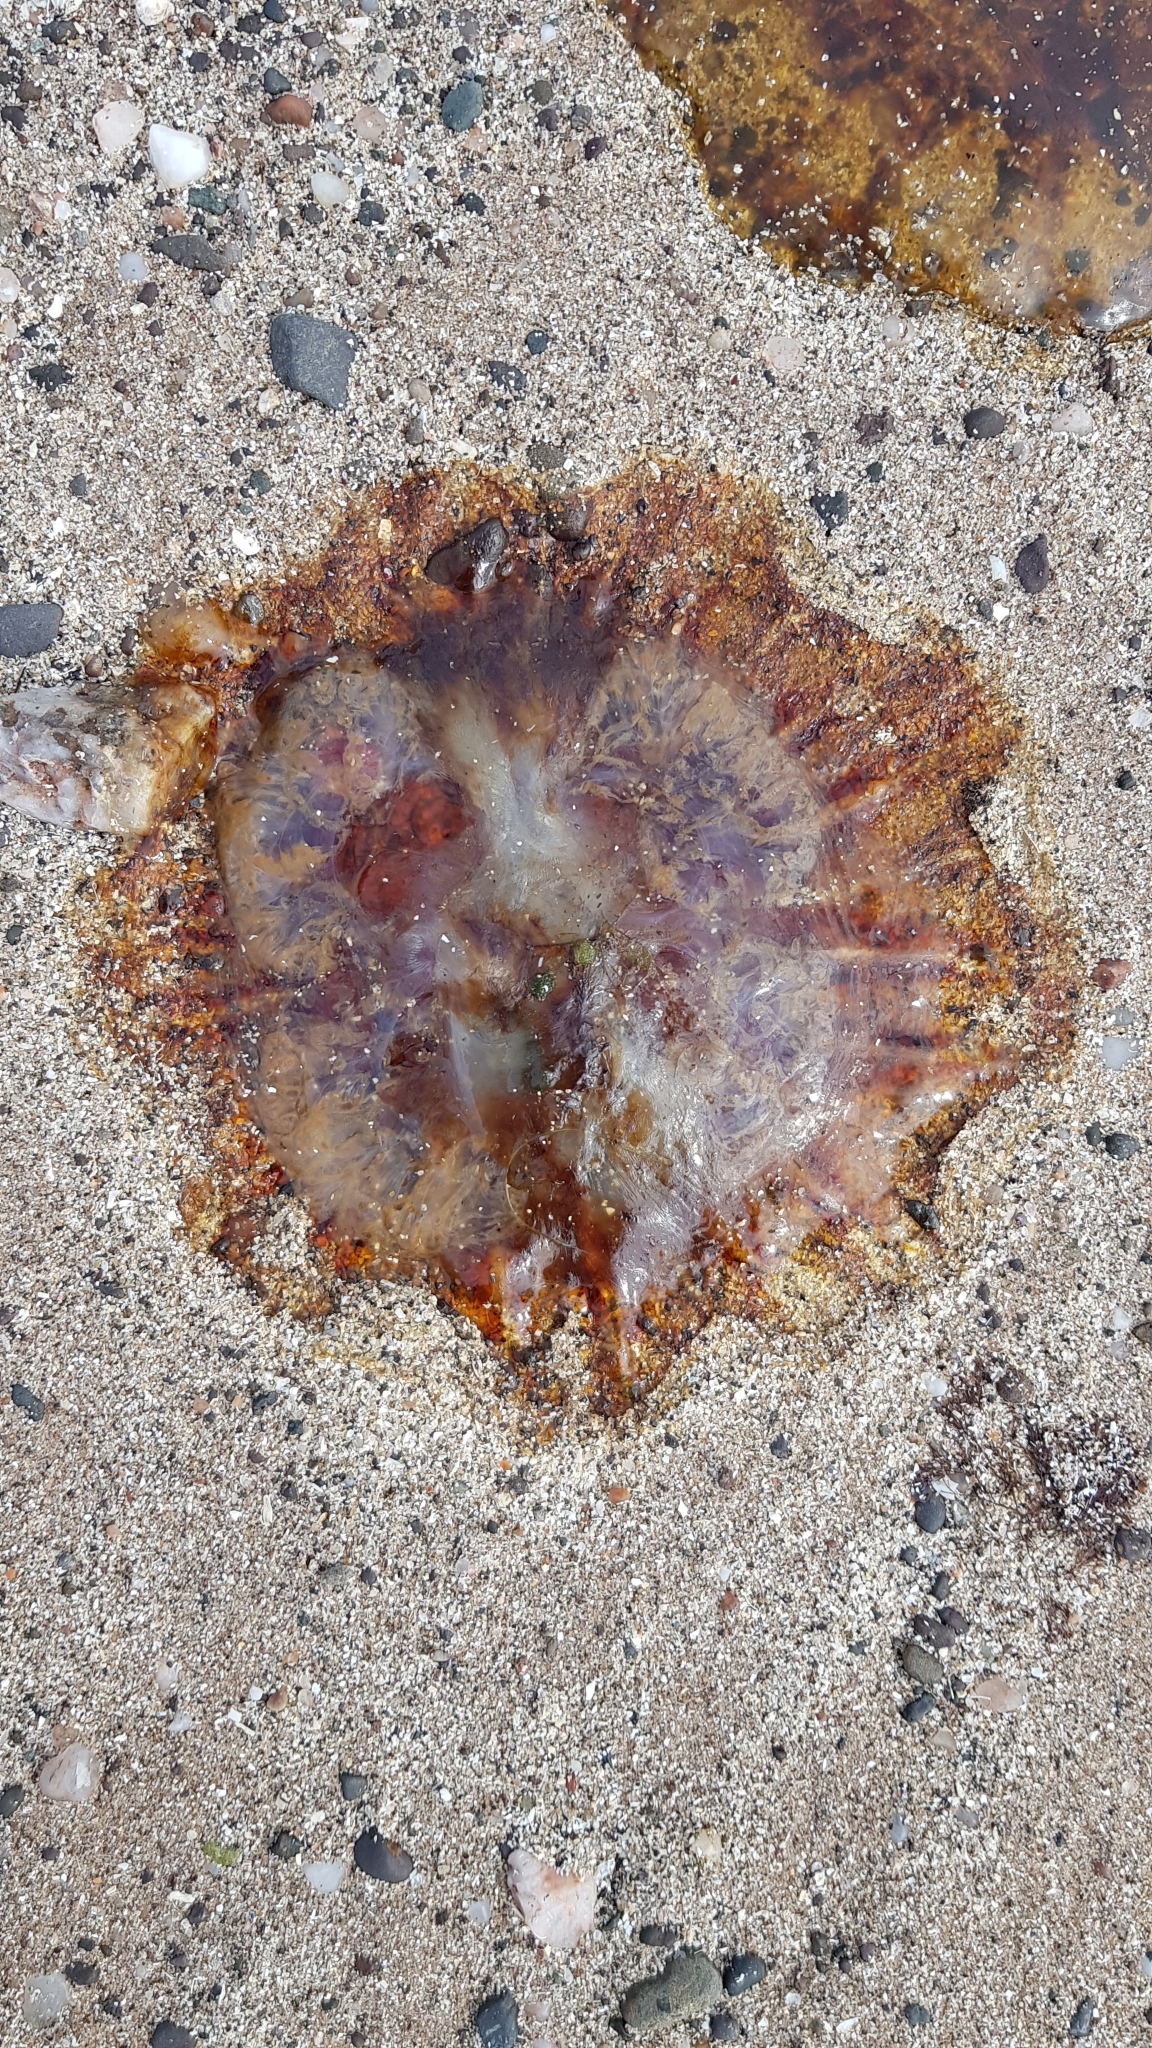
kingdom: Animalia
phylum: Cnidaria
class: Scyphozoa
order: Semaeostomeae
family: Cyaneidae
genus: Cyanea
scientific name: Cyanea capillata
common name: Lion's mane jellyfish
